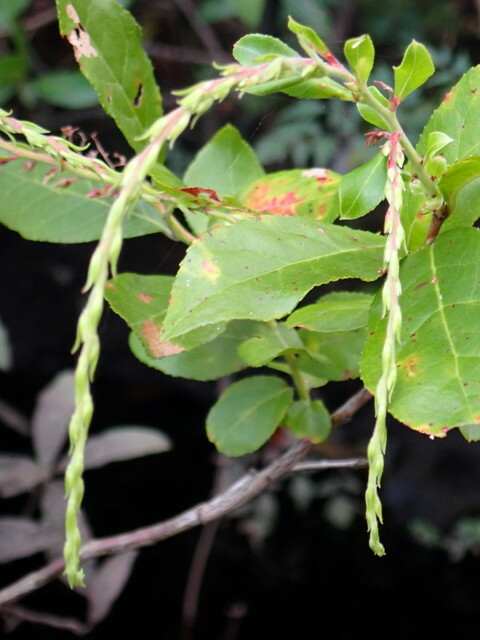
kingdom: Plantae
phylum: Tracheophyta
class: Magnoliopsida
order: Ericales
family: Ericaceae
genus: Eubotrys
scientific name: Eubotrys racemosa
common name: Fetterbush
